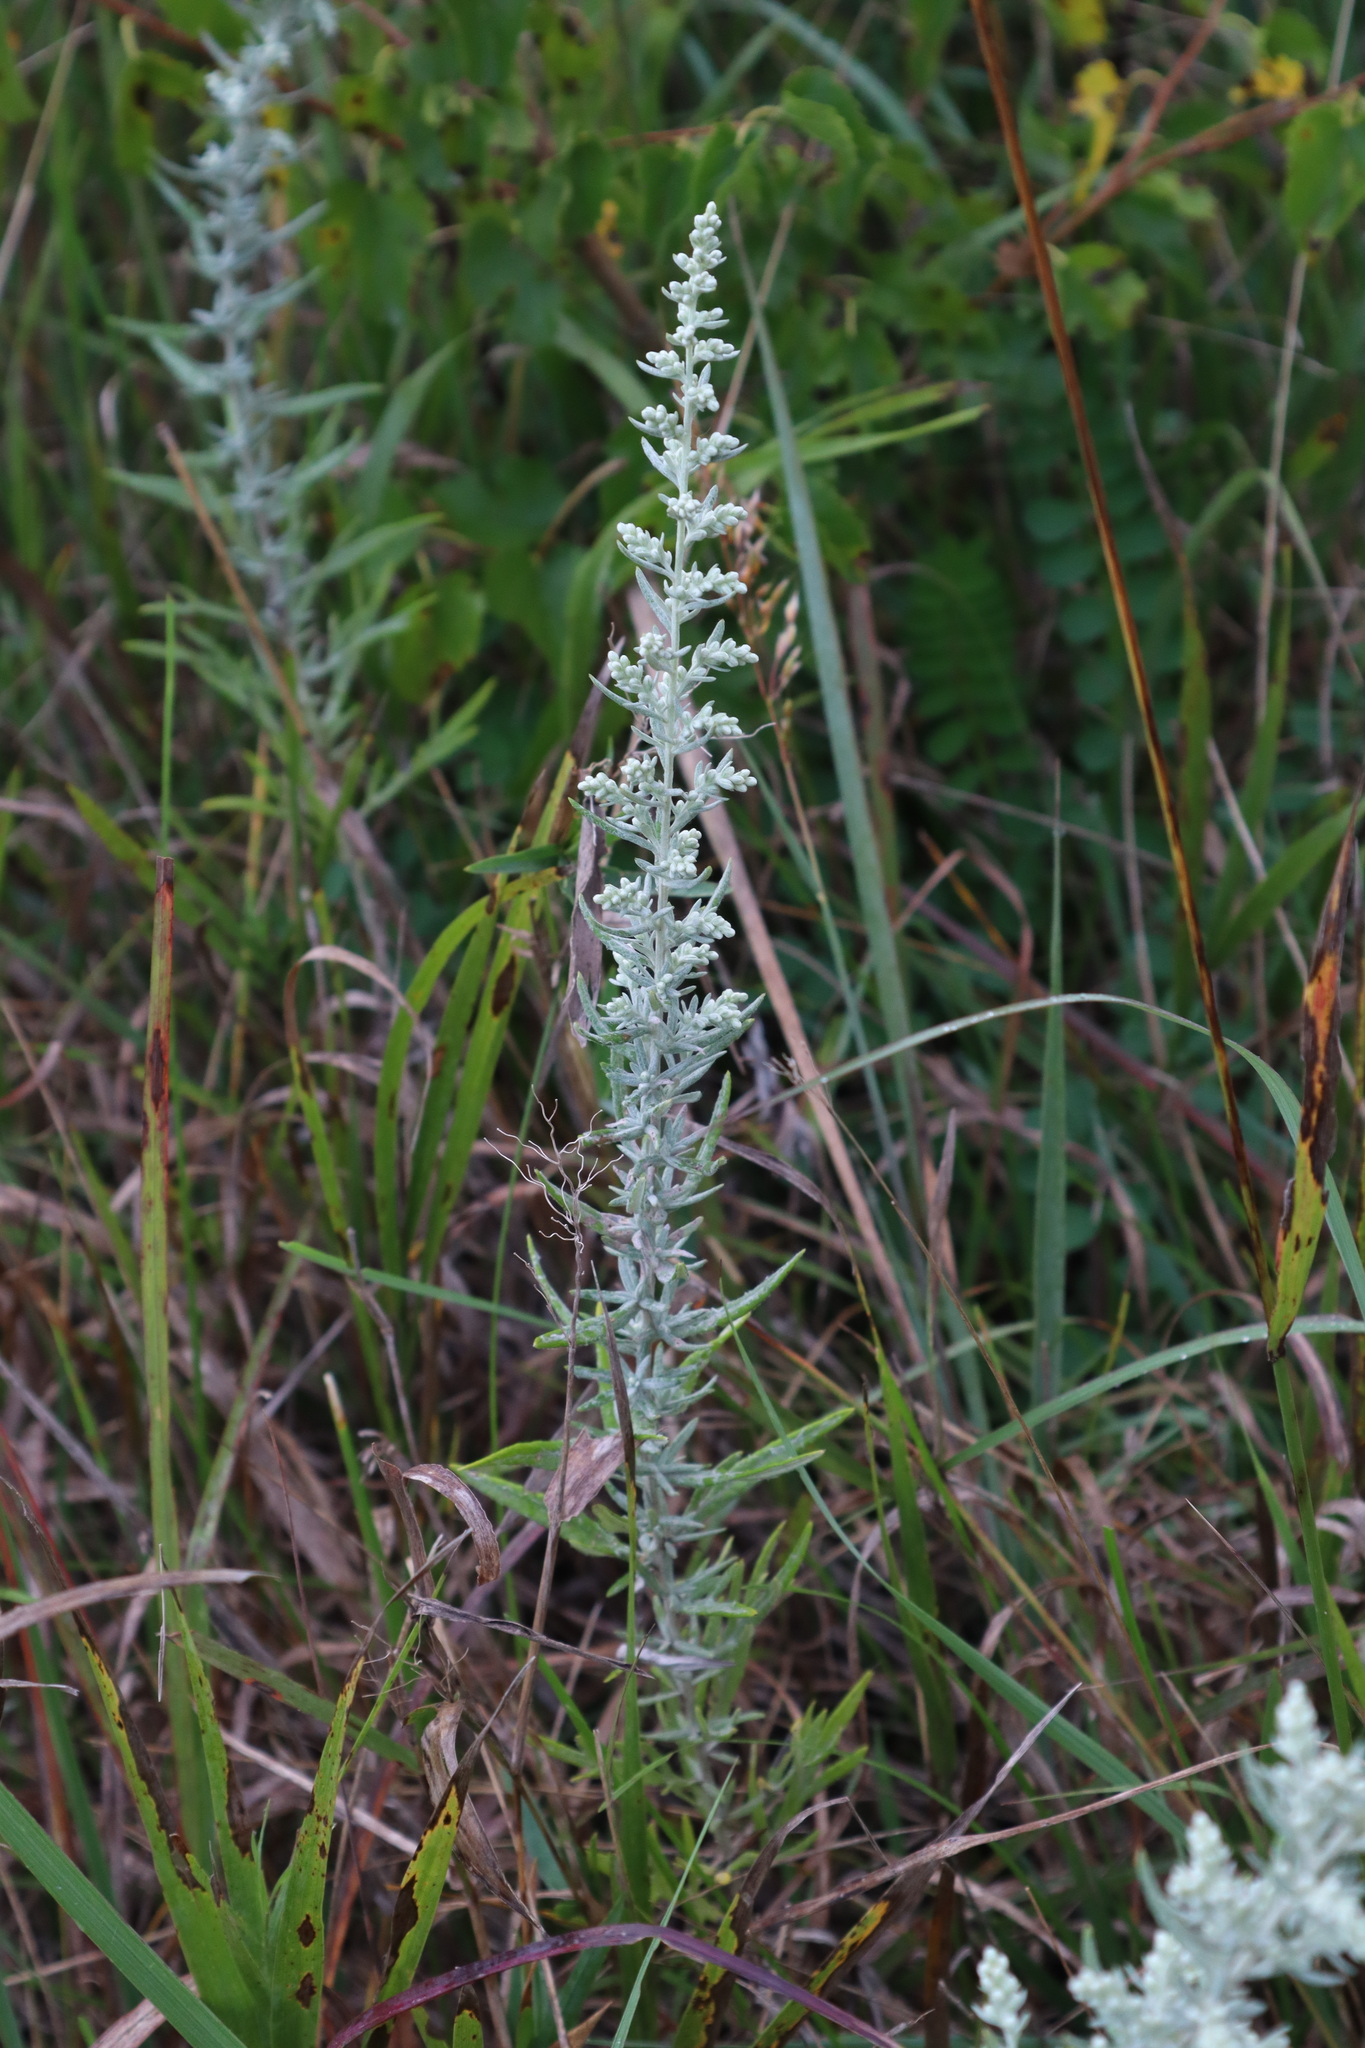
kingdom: Plantae
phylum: Tracheophyta
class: Magnoliopsida
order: Asterales
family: Asteraceae
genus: Artemisia
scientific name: Artemisia ludoviciana
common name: Western mugwort
